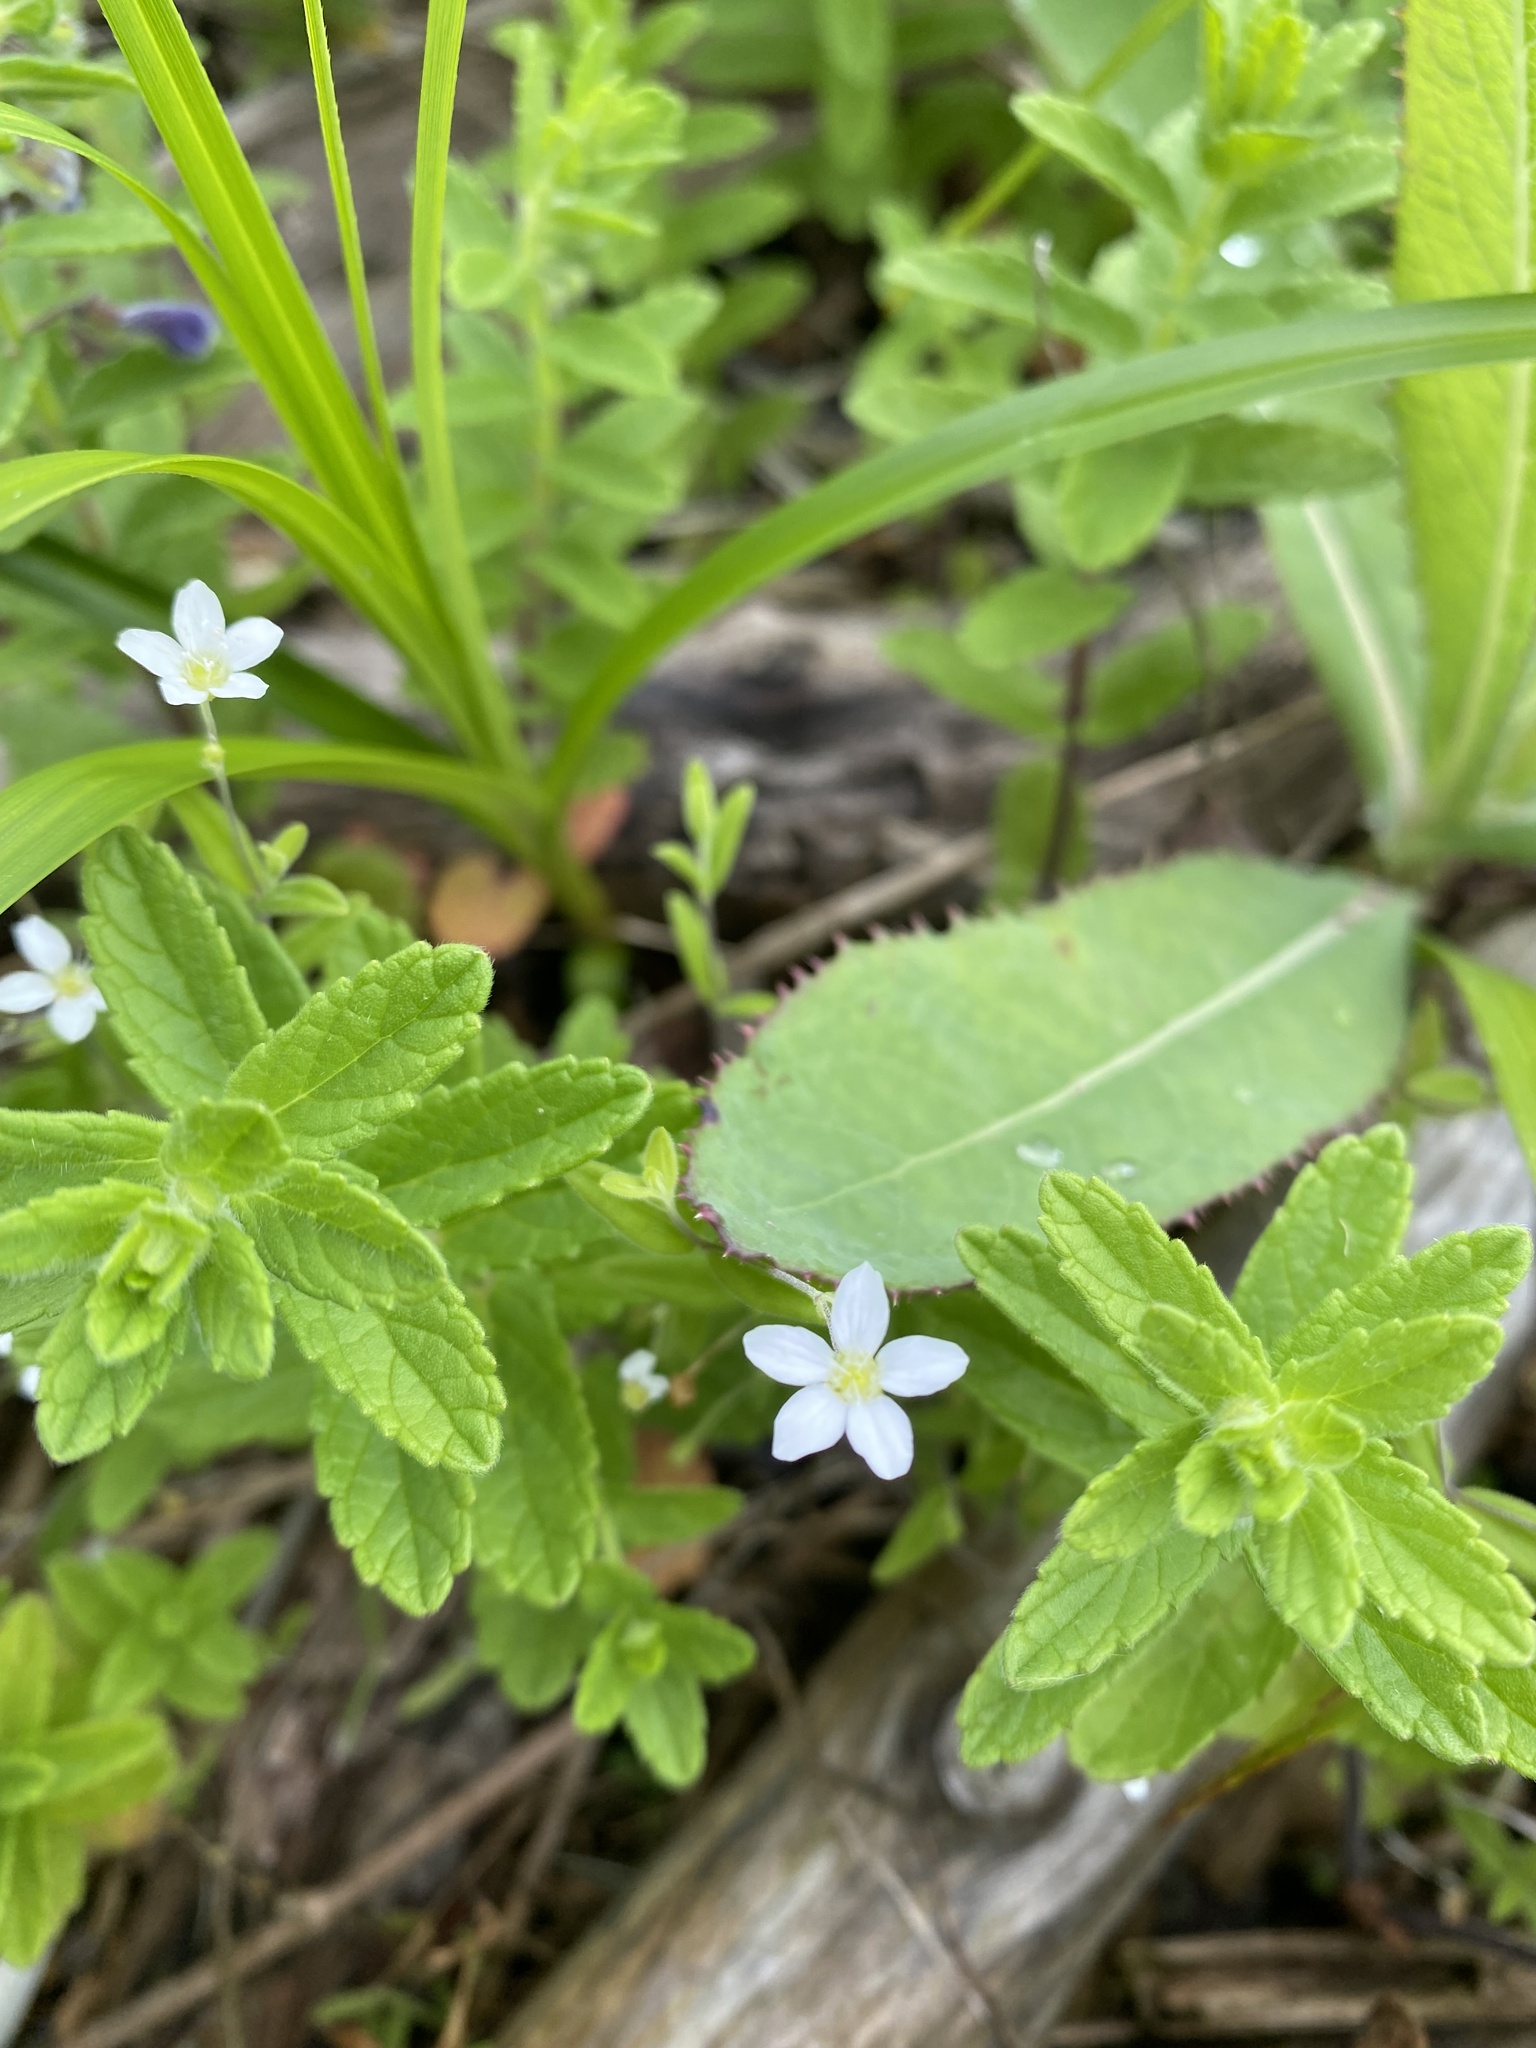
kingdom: Plantae
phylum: Tracheophyta
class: Magnoliopsida
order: Lamiales
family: Lamiaceae
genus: Scutellaria
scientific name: Scutellaria strigillosa
